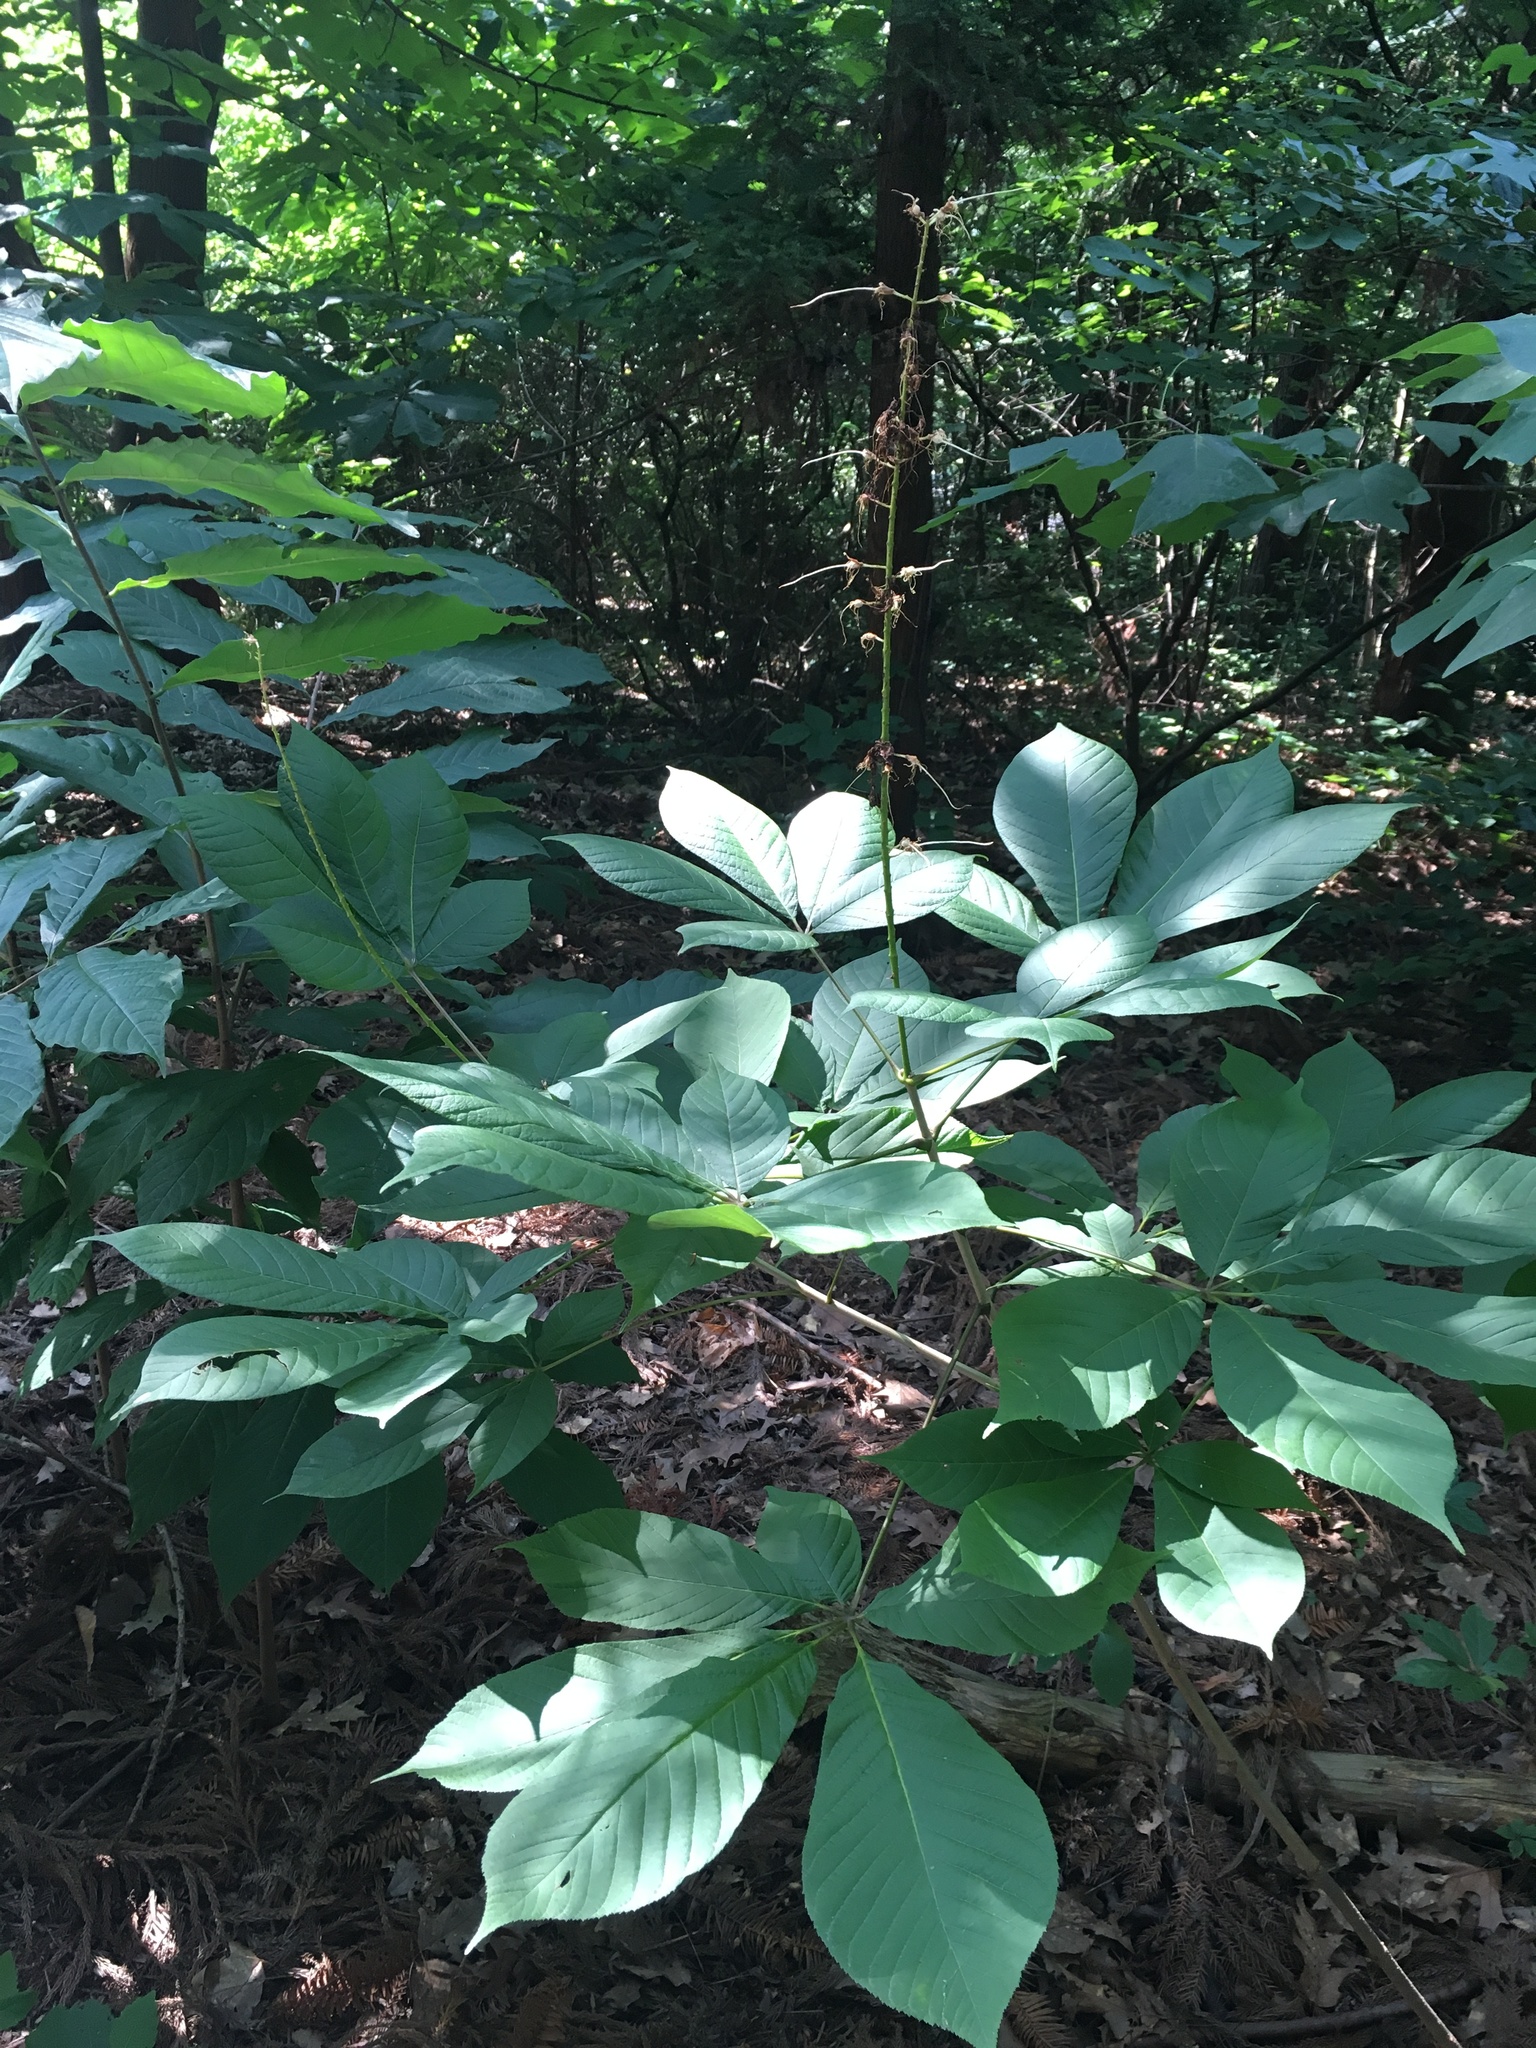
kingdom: Plantae
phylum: Tracheophyta
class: Magnoliopsida
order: Sapindales
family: Sapindaceae
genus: Aesculus
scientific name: Aesculus parviflora
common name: Bottlebrush buckeye
